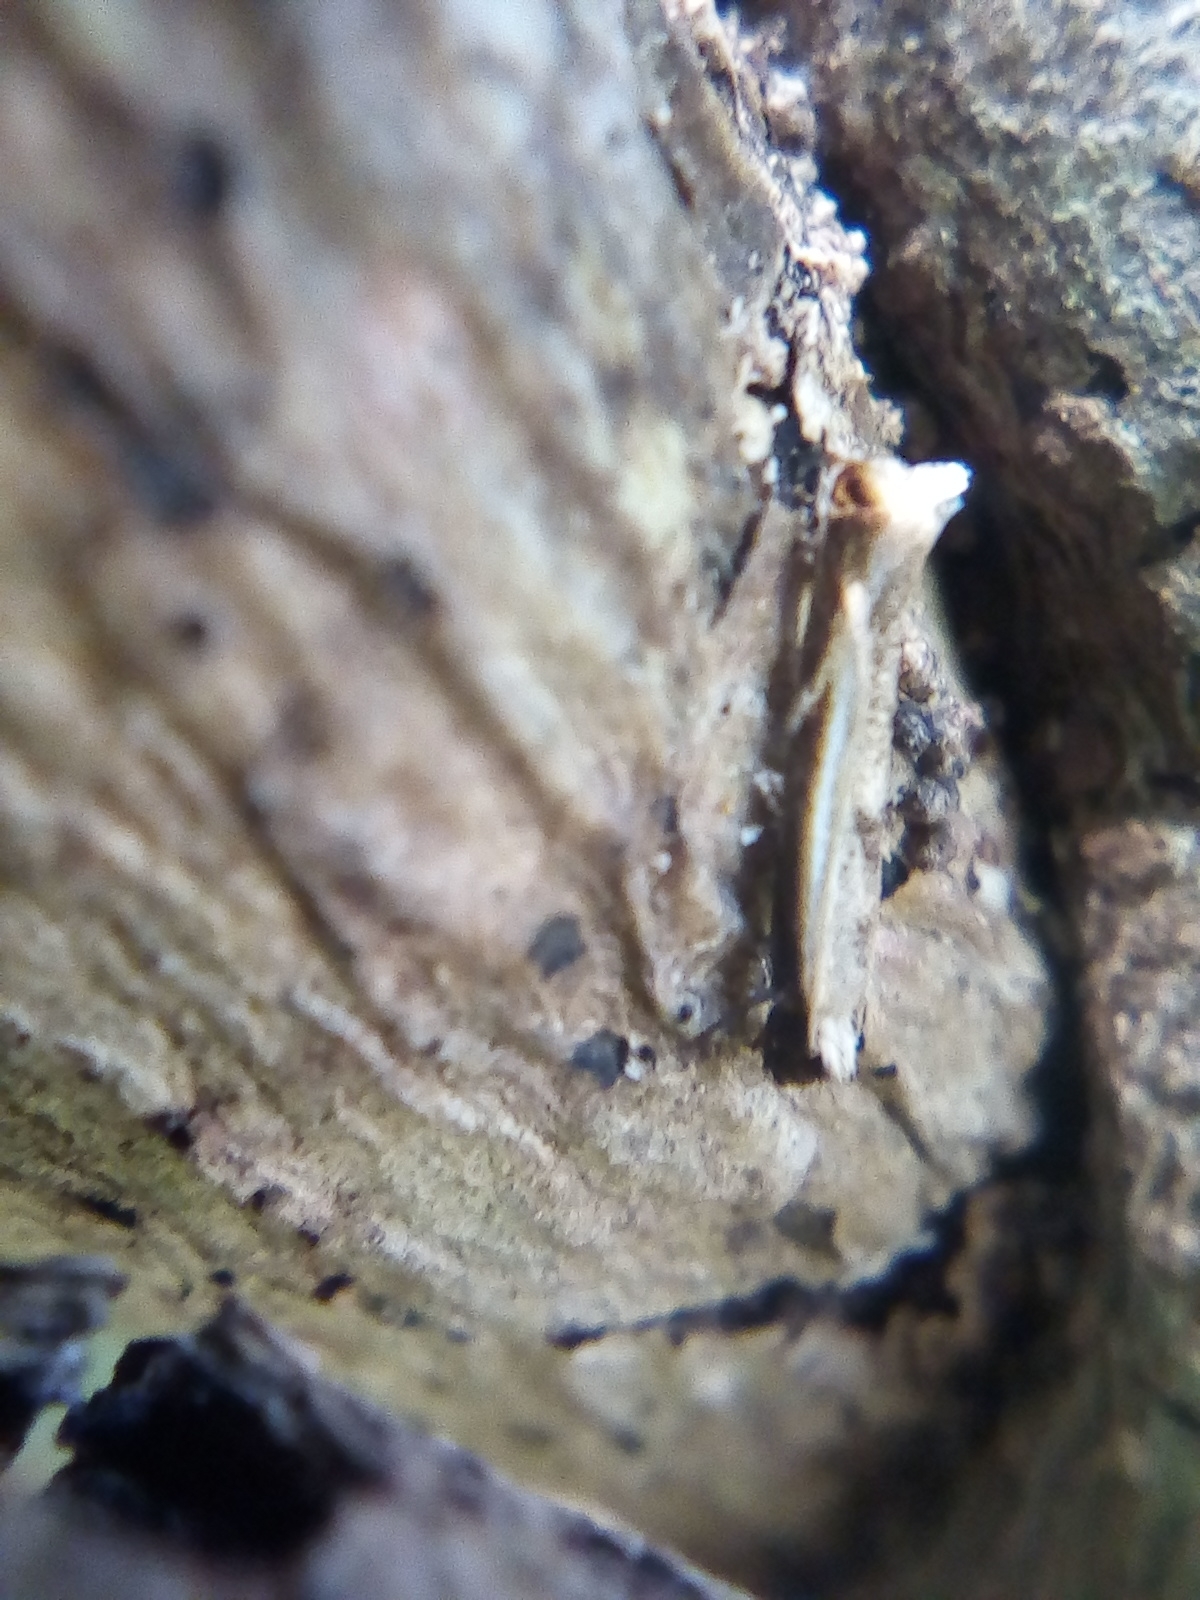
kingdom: Animalia
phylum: Arthropoda
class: Insecta
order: Lepidoptera
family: Tineidae
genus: Erechthias
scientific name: Erechthias terminella
